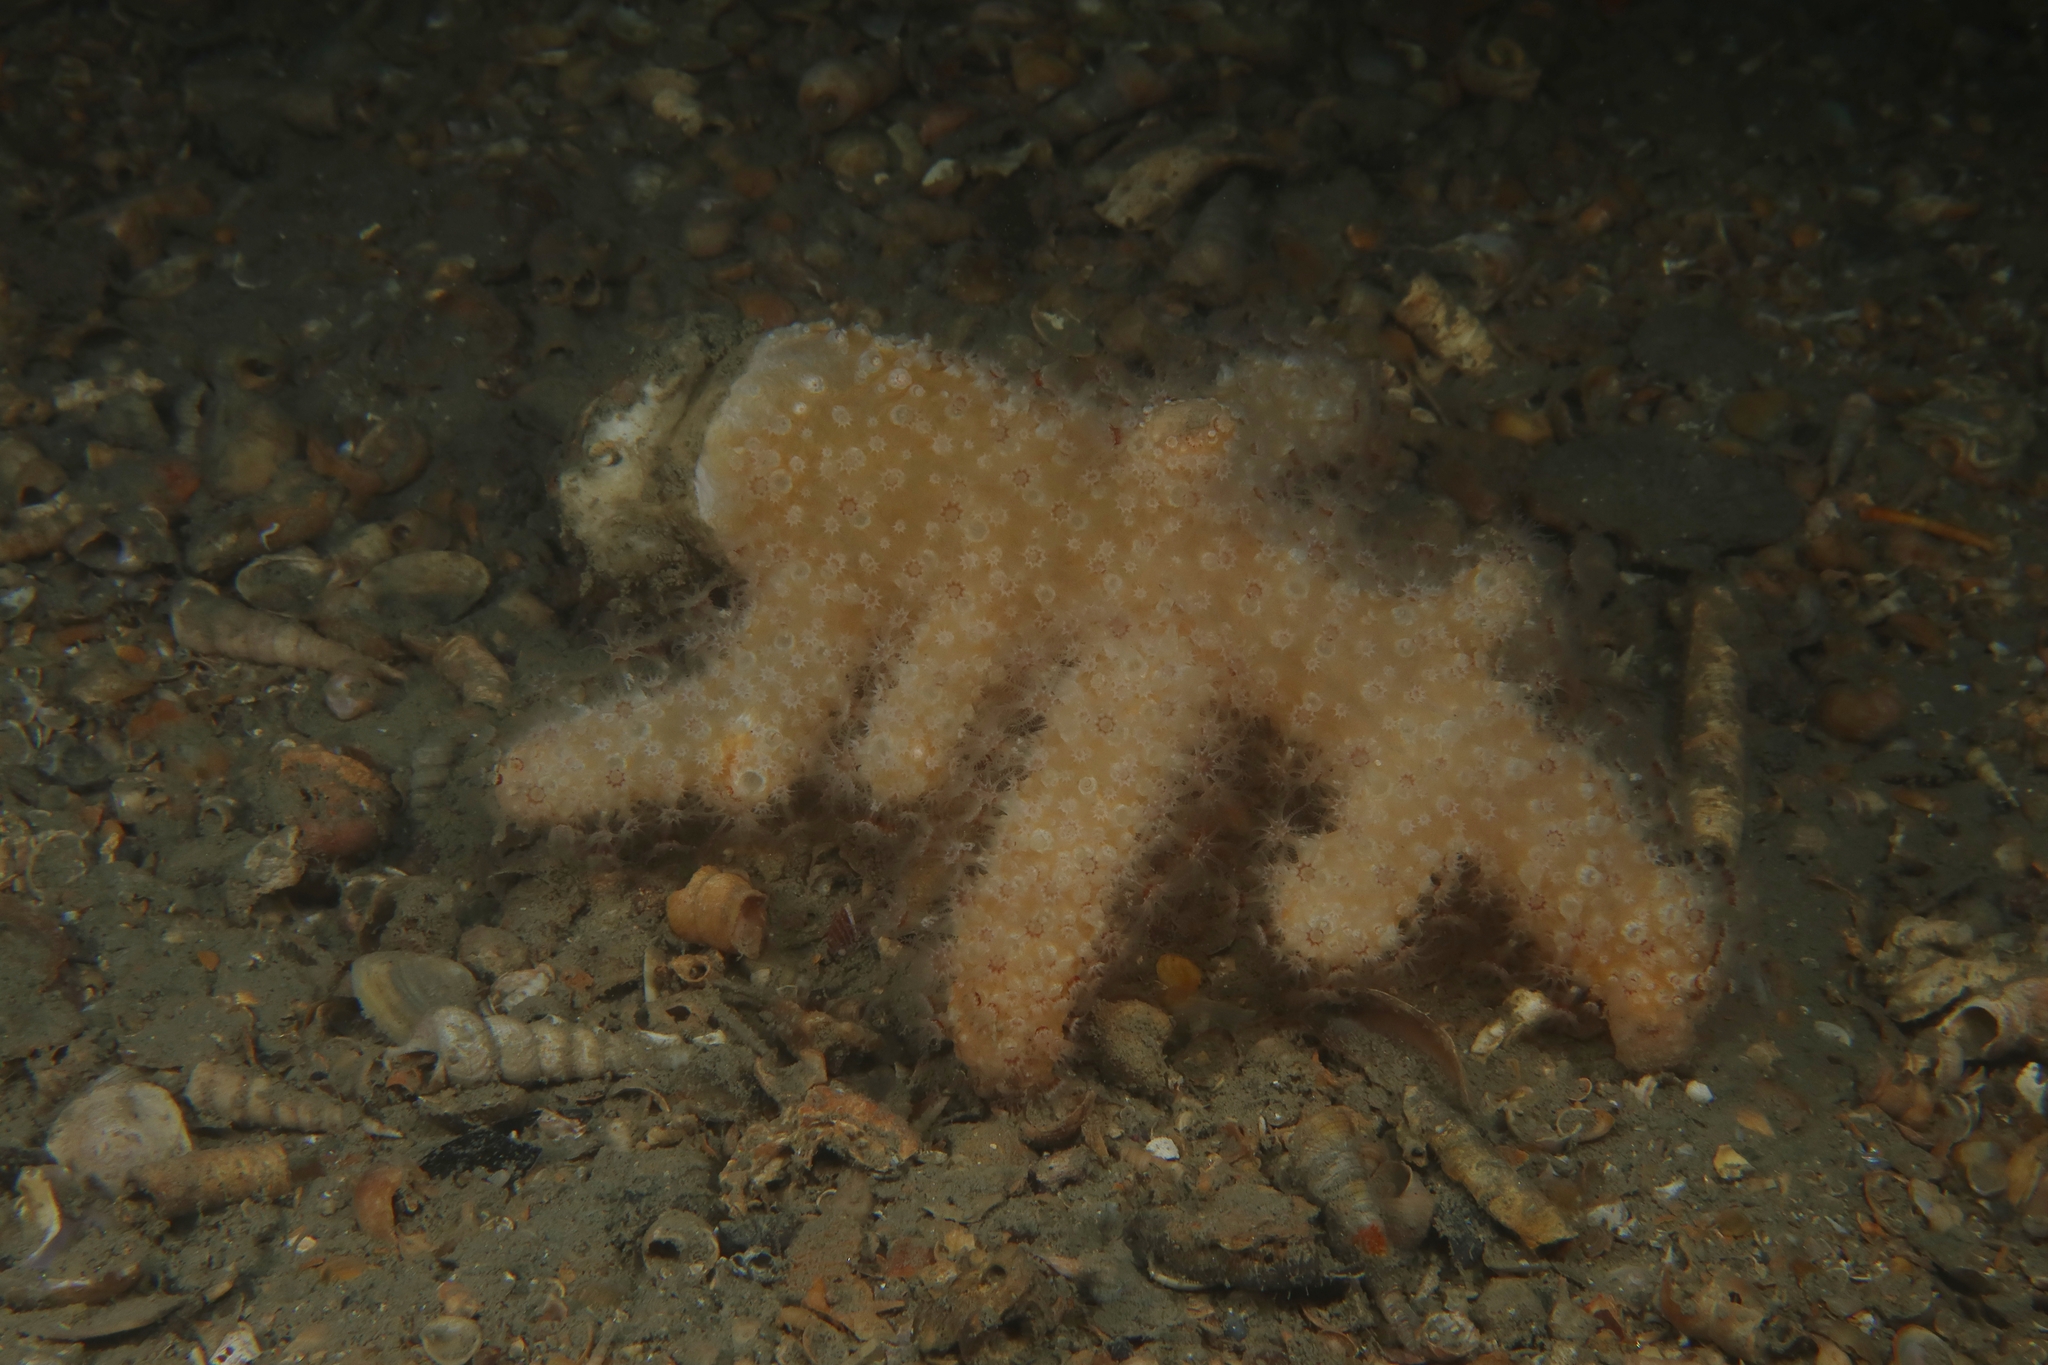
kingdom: Animalia
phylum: Cnidaria
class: Anthozoa
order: Malacalcyonacea
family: Alcyoniidae
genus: Alcyonium
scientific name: Alcyonium palmatum
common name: Mediterranean sea-fingers
